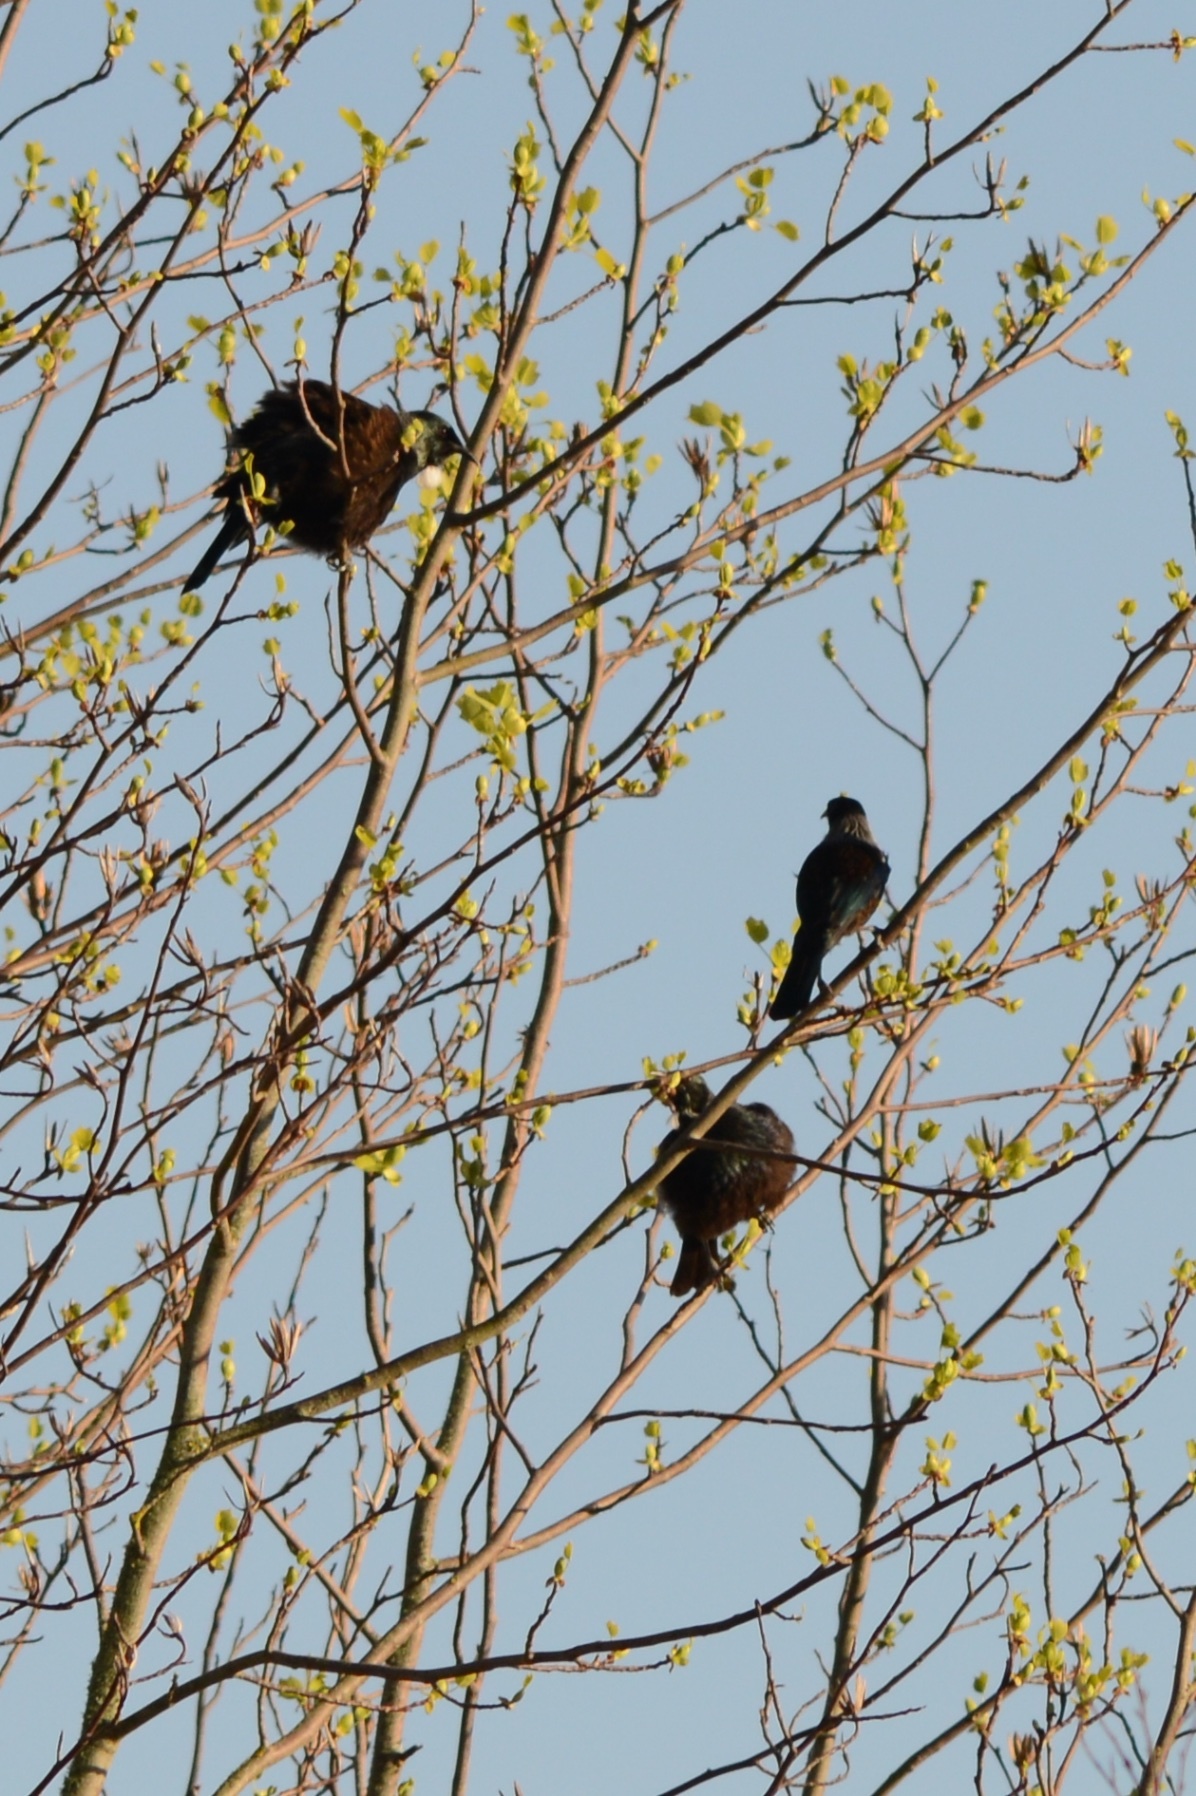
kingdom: Animalia
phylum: Chordata
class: Aves
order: Passeriformes
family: Meliphagidae
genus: Prosthemadera
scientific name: Prosthemadera novaeseelandiae
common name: Tui
